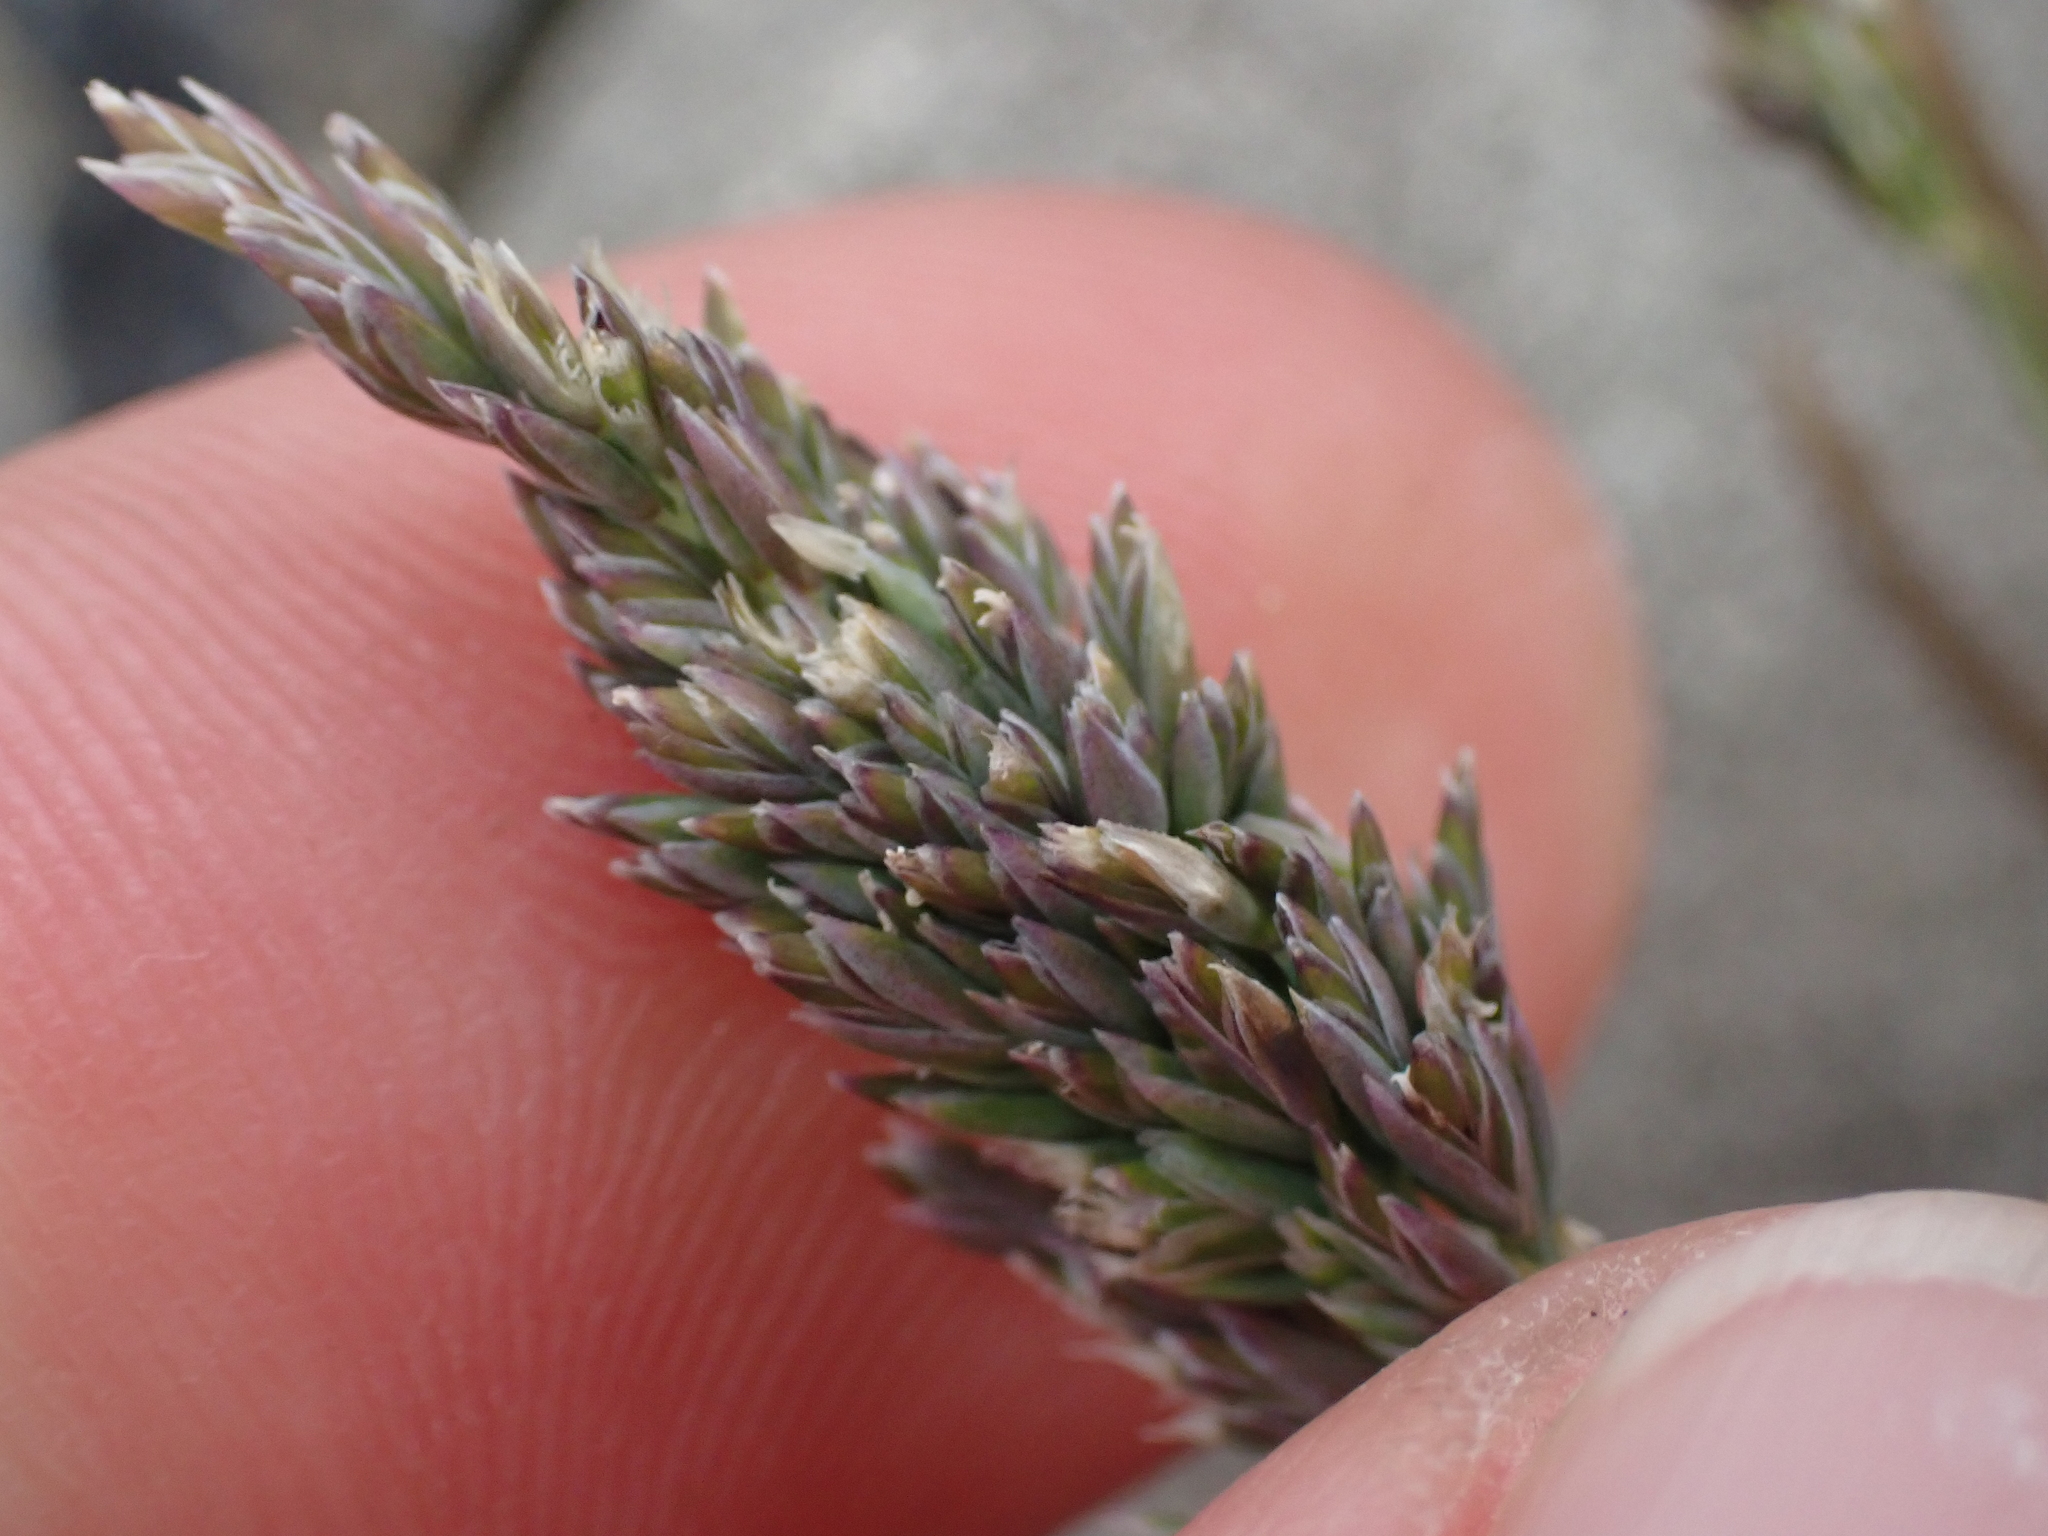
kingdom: Plantae
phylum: Tracheophyta
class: Liliopsida
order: Poales
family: Poaceae
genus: Poa
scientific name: Poa buchananii
